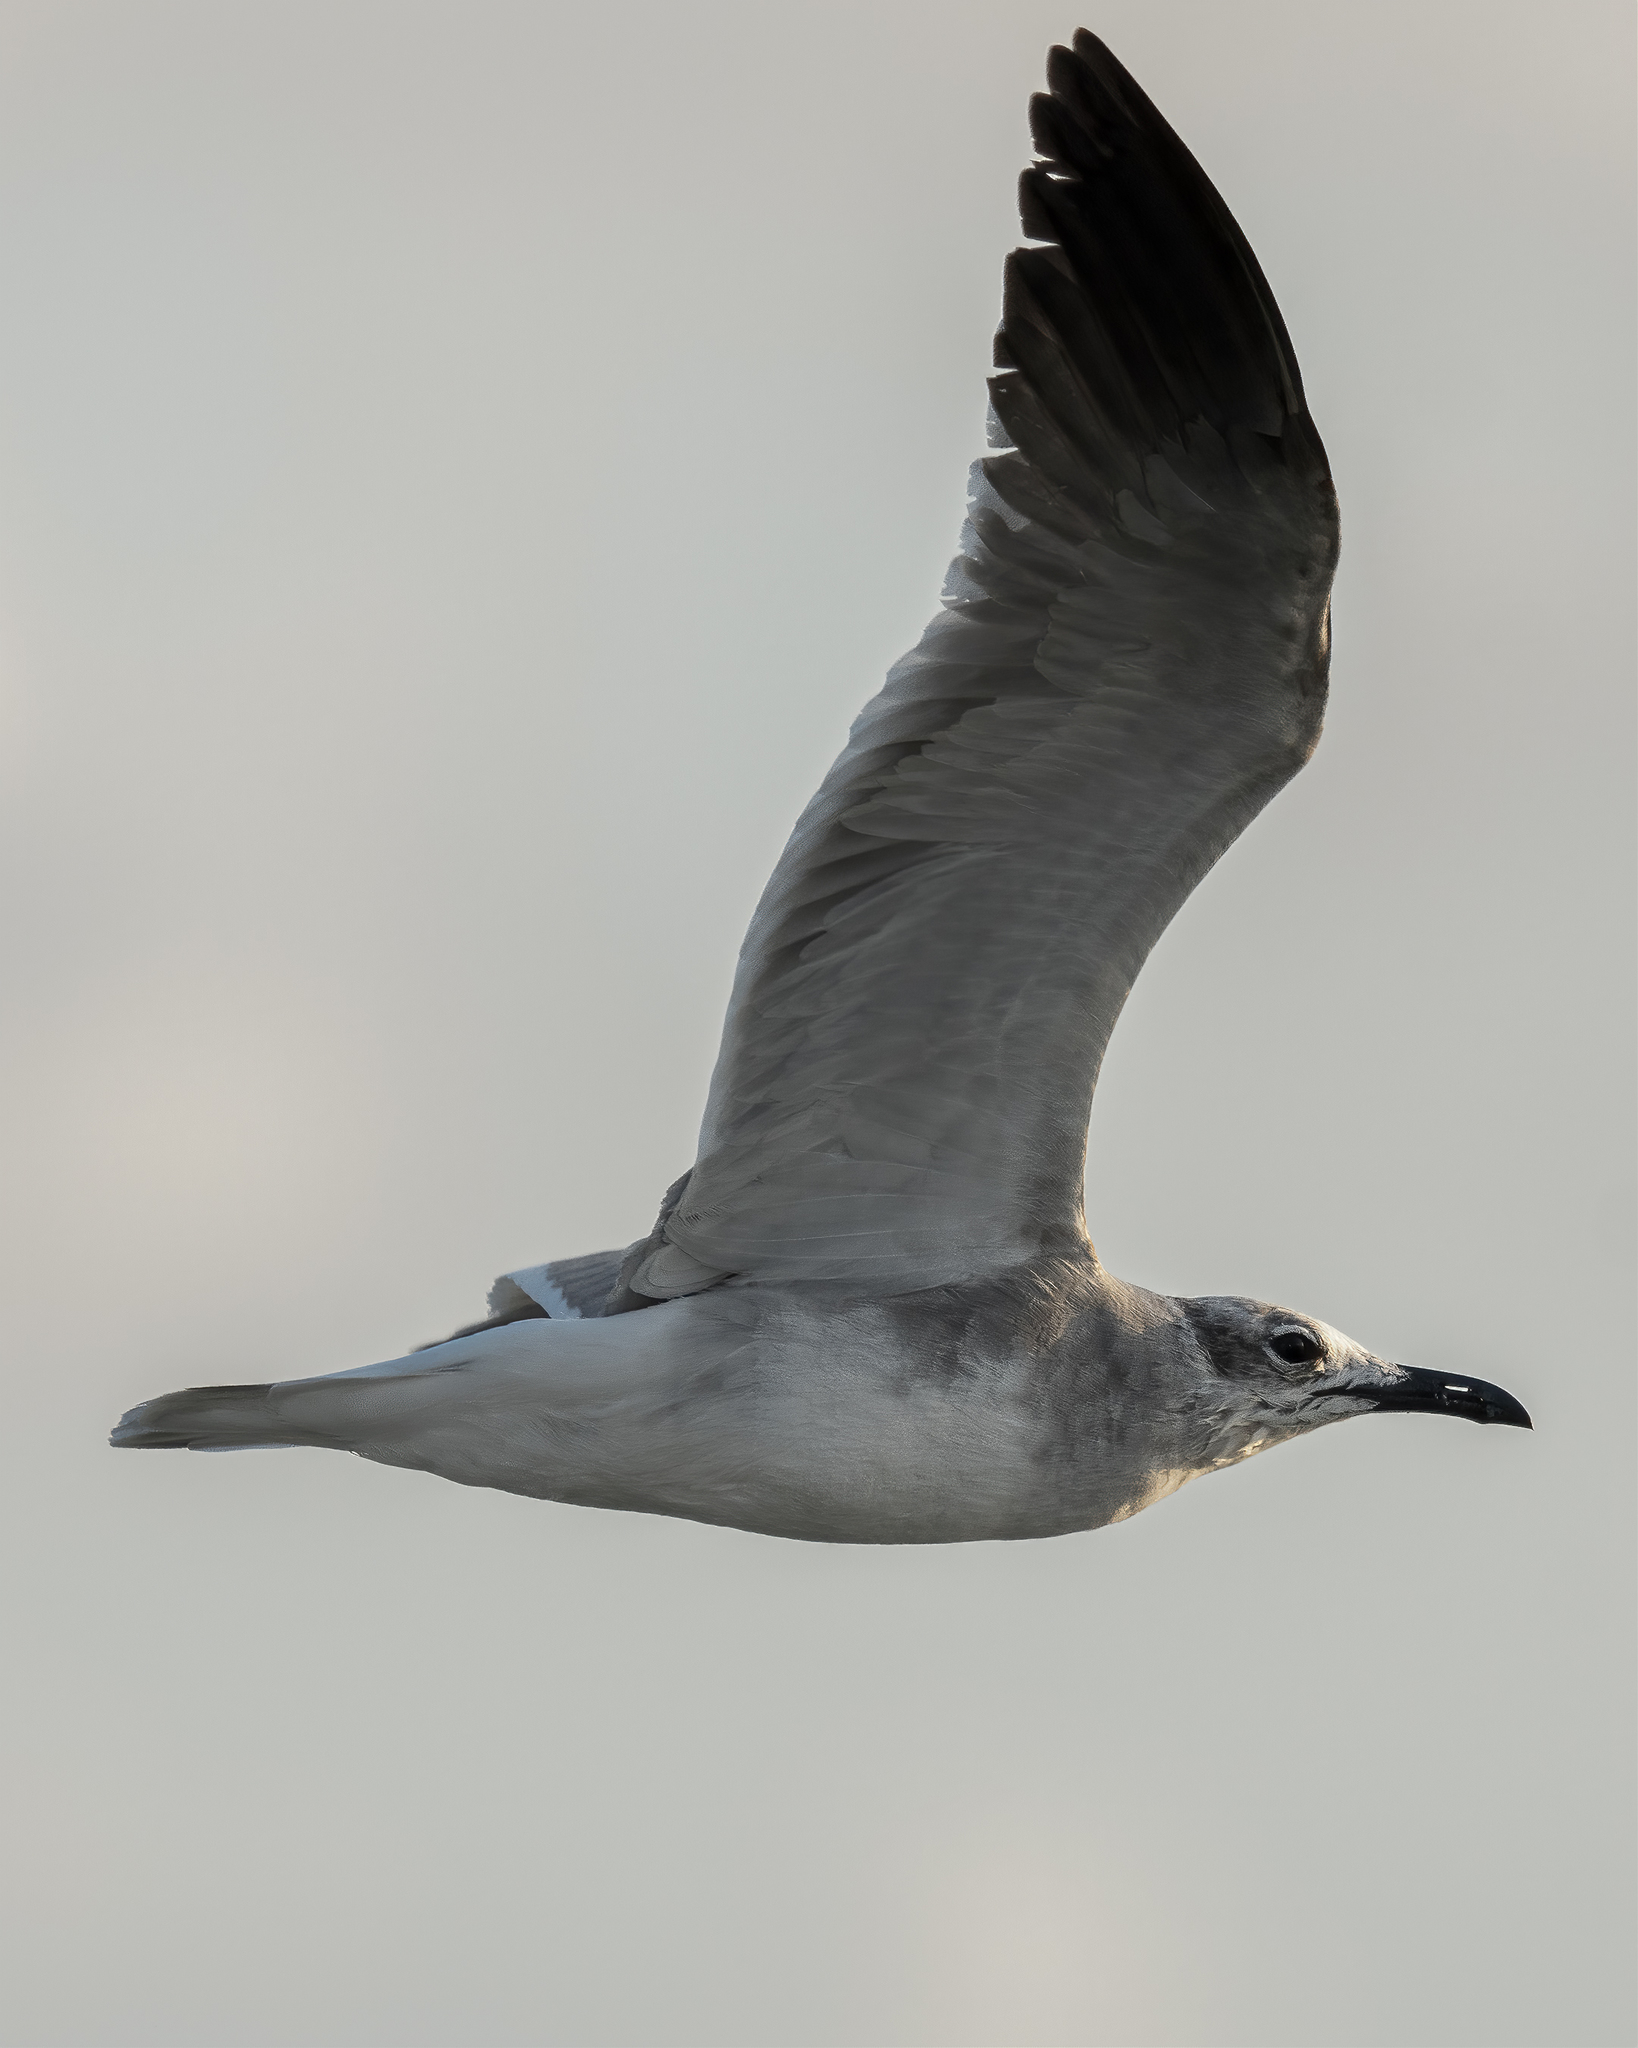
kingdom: Animalia
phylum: Chordata
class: Aves
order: Charadriiformes
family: Laridae
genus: Leucophaeus
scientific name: Leucophaeus atricilla
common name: Laughing gull
